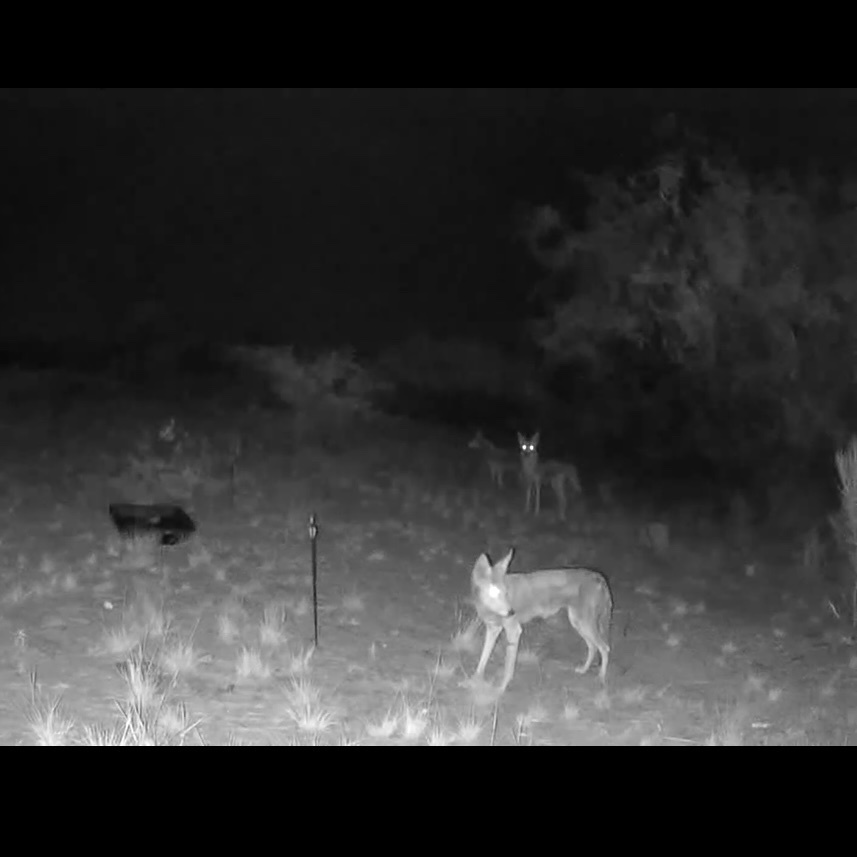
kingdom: Animalia
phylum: Chordata
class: Mammalia
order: Carnivora
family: Canidae
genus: Canis
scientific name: Canis latrans
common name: Coyote
